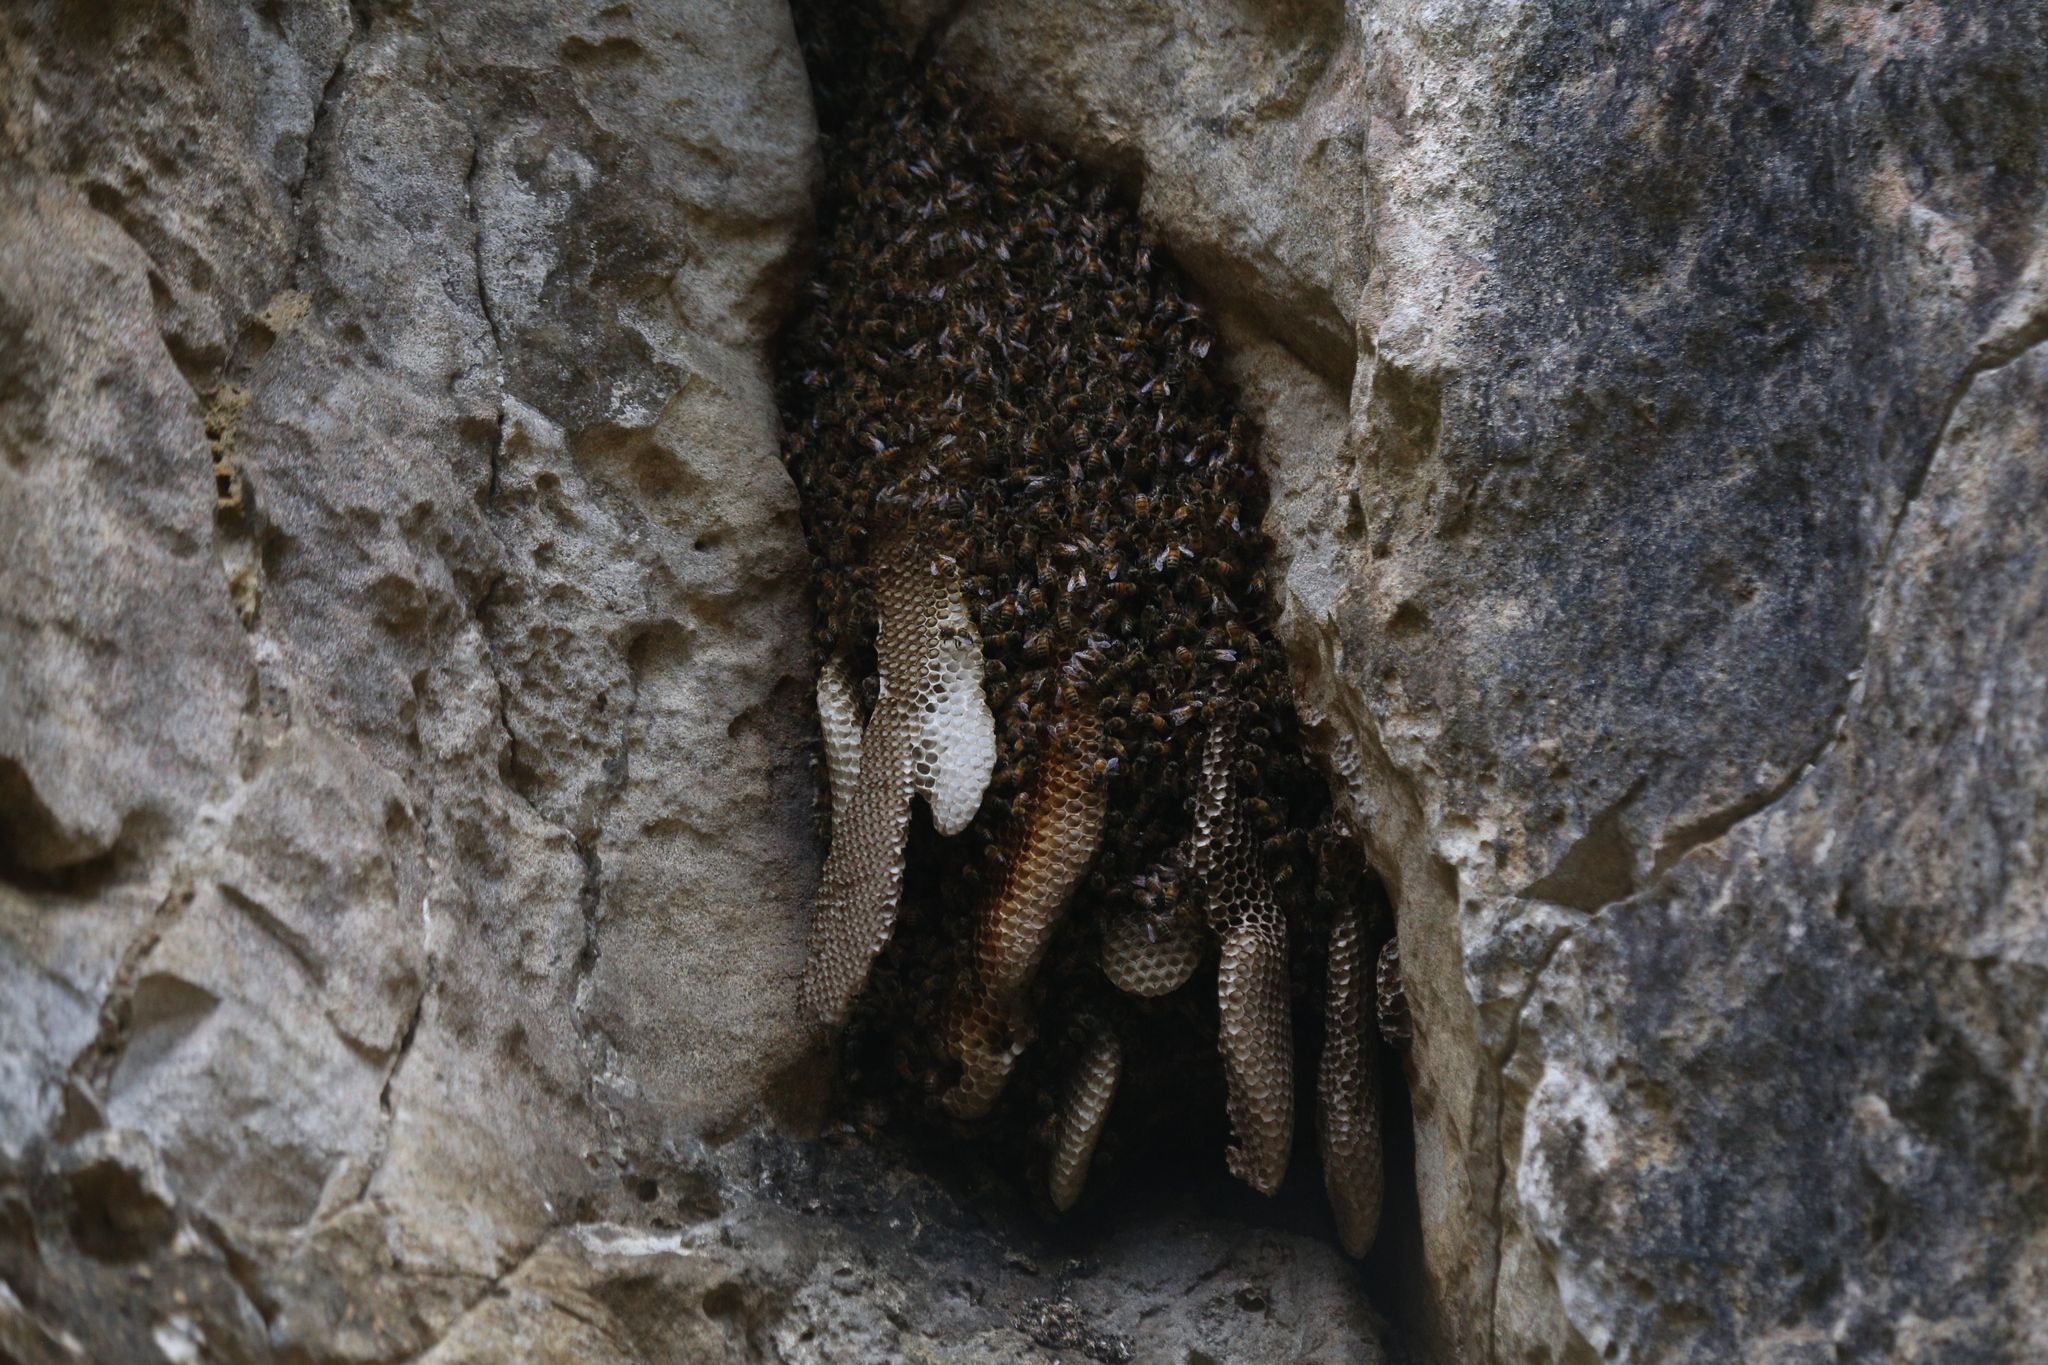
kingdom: Animalia
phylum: Arthropoda
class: Insecta
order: Hymenoptera
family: Apidae
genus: Apis
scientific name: Apis mellifera
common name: Honey bee
